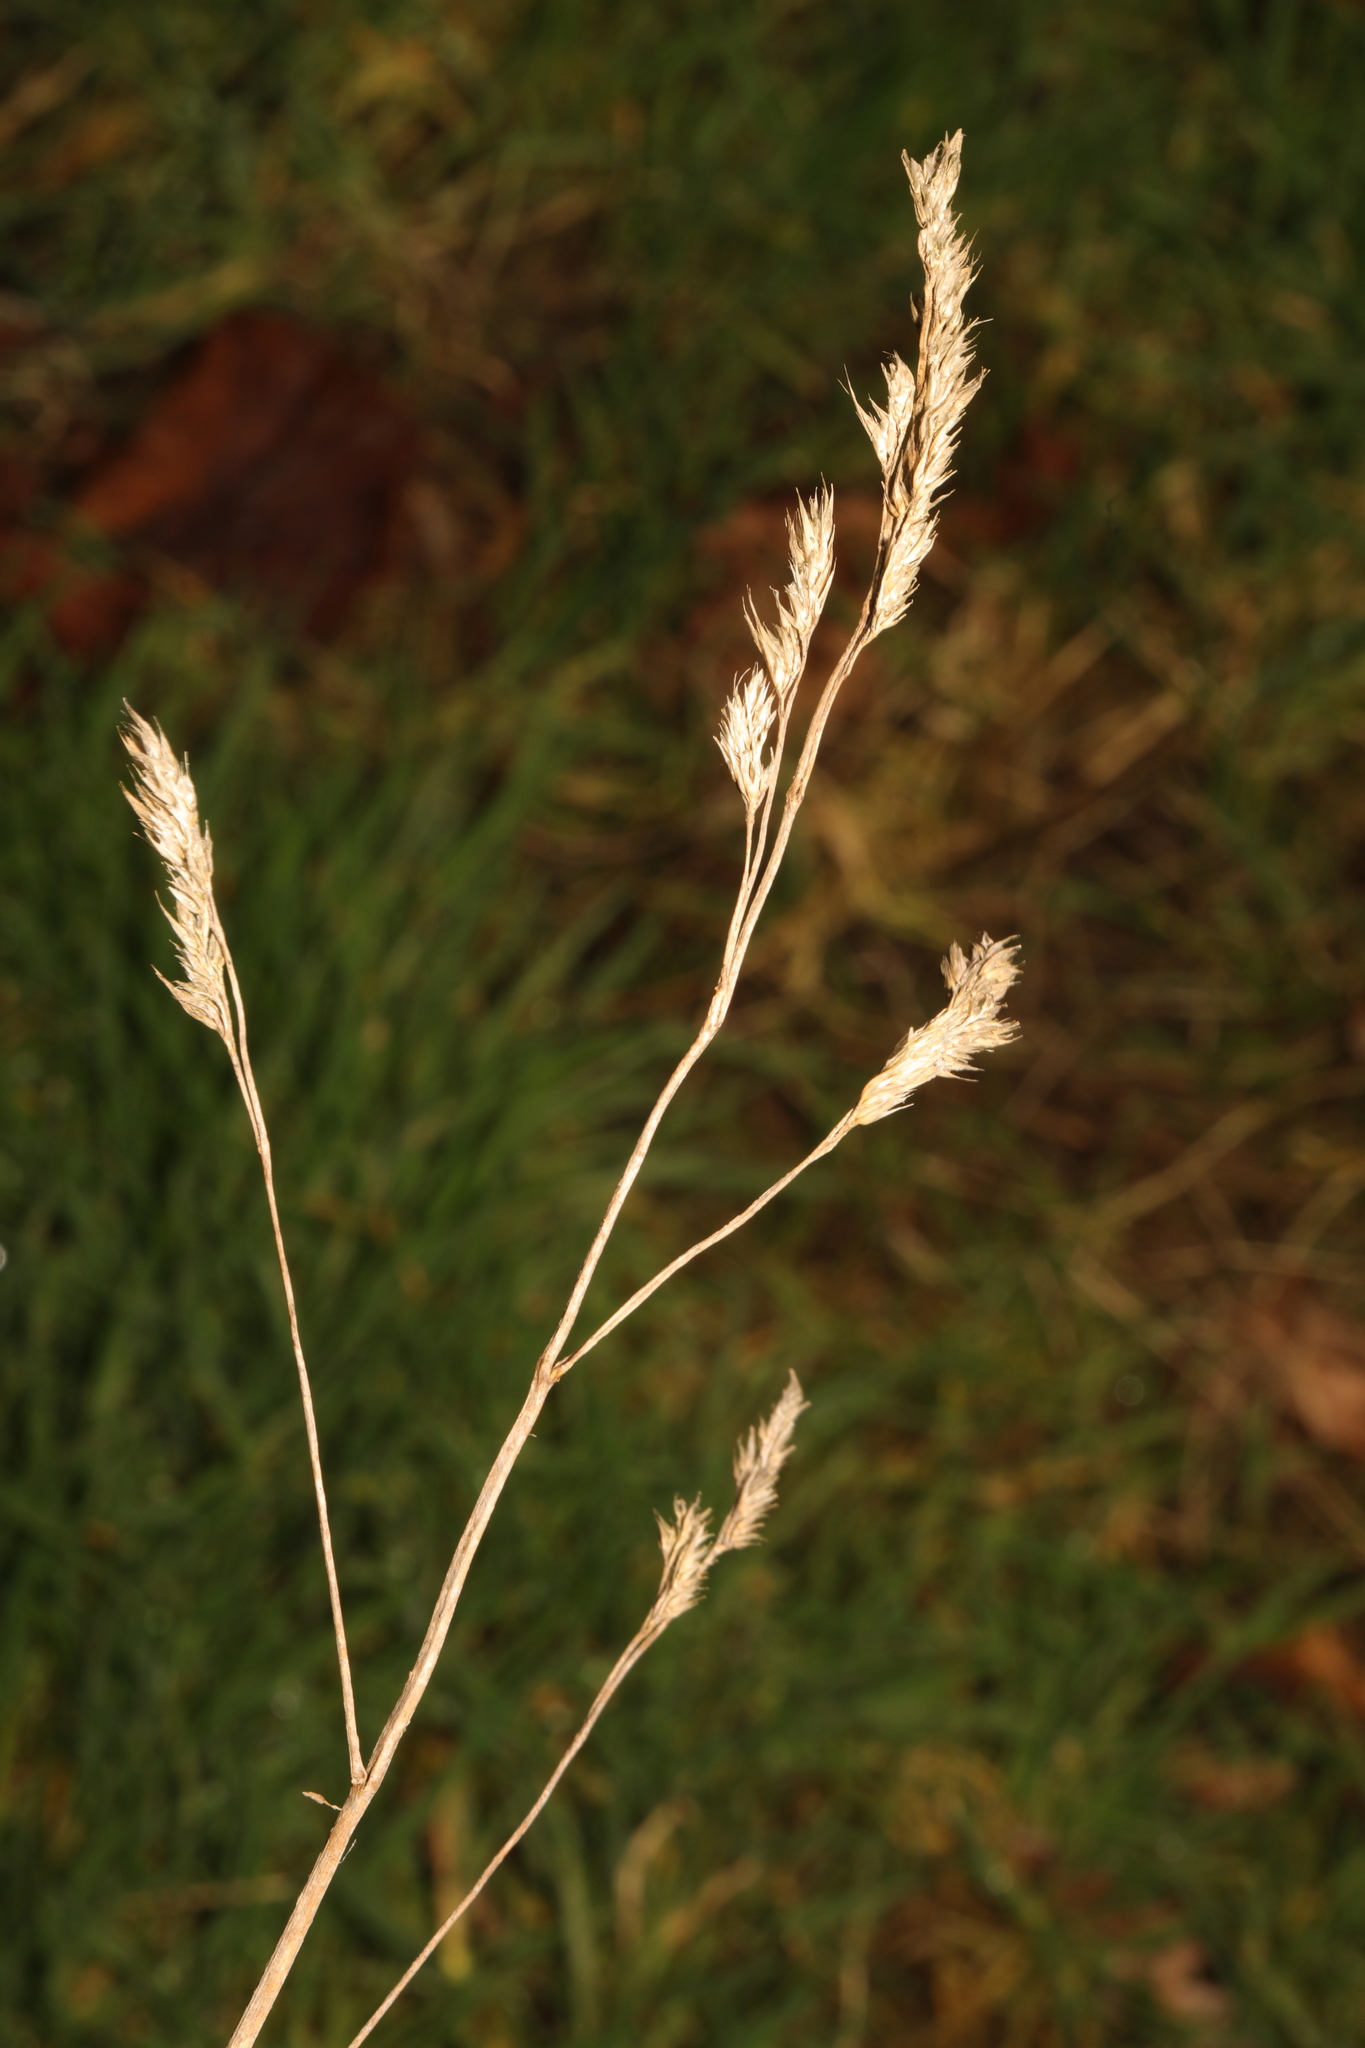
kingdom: Plantae
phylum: Tracheophyta
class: Liliopsida
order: Poales
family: Poaceae
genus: Dactylis
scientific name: Dactylis glomerata
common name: Orchardgrass
